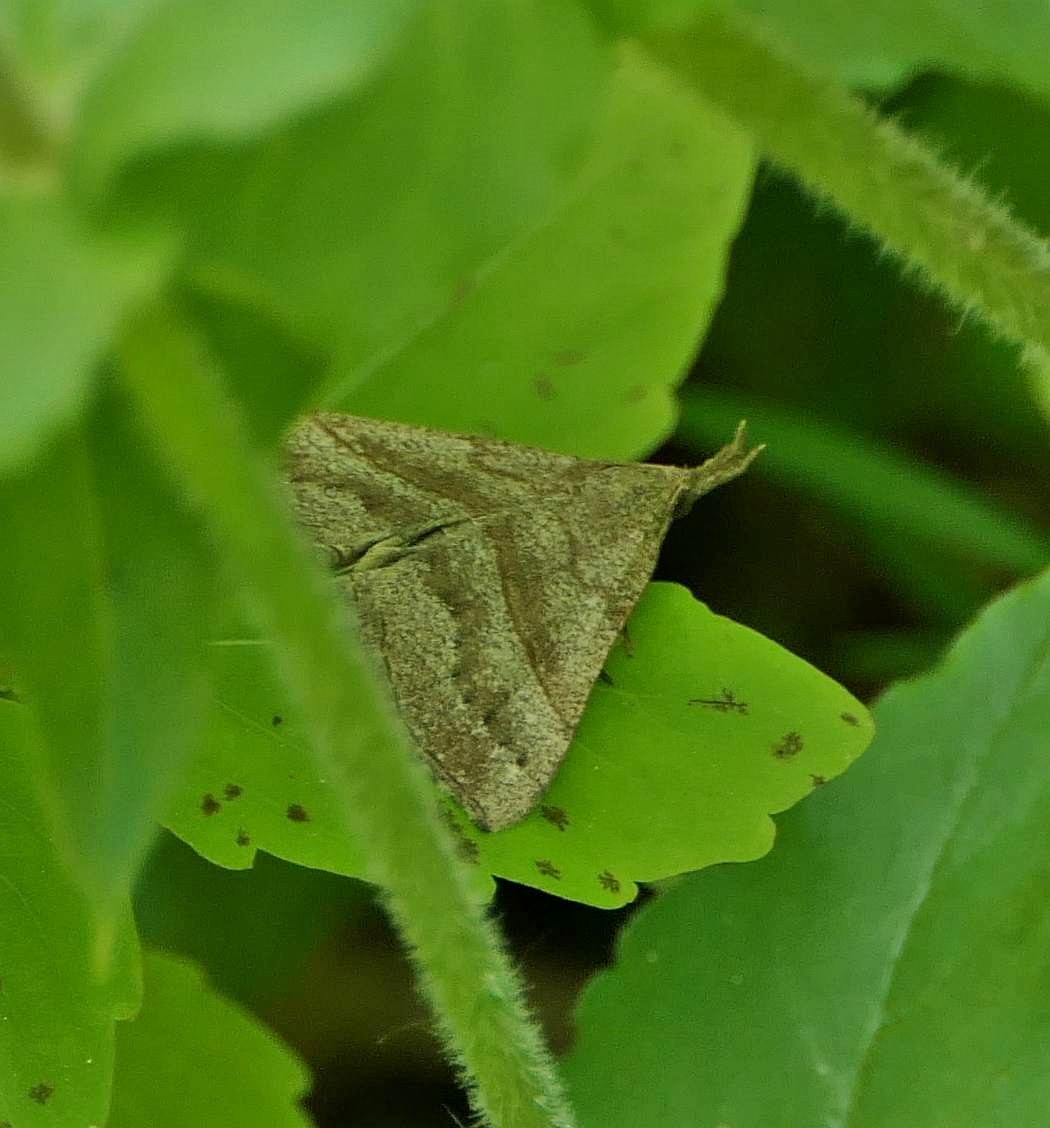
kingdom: Animalia
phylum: Arthropoda
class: Insecta
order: Lepidoptera
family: Erebidae
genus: Hypena
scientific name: Hypena atomaria
